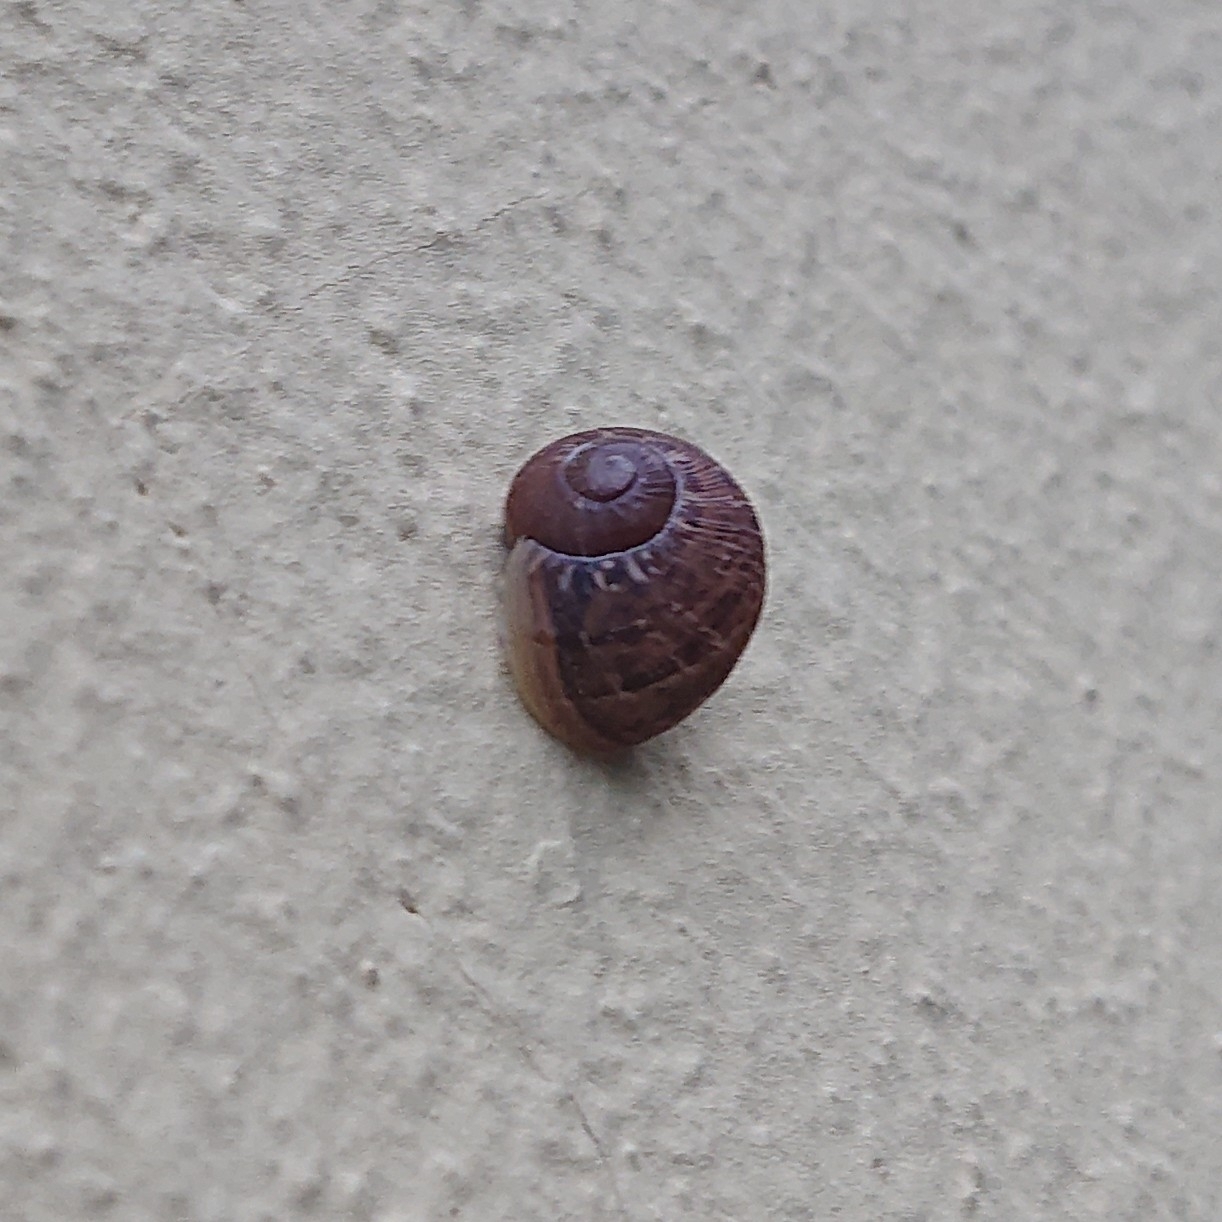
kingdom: Animalia
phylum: Mollusca
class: Gastropoda
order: Stylommatophora
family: Helicidae
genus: Cornu
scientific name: Cornu aspersum
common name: Brown garden snail
